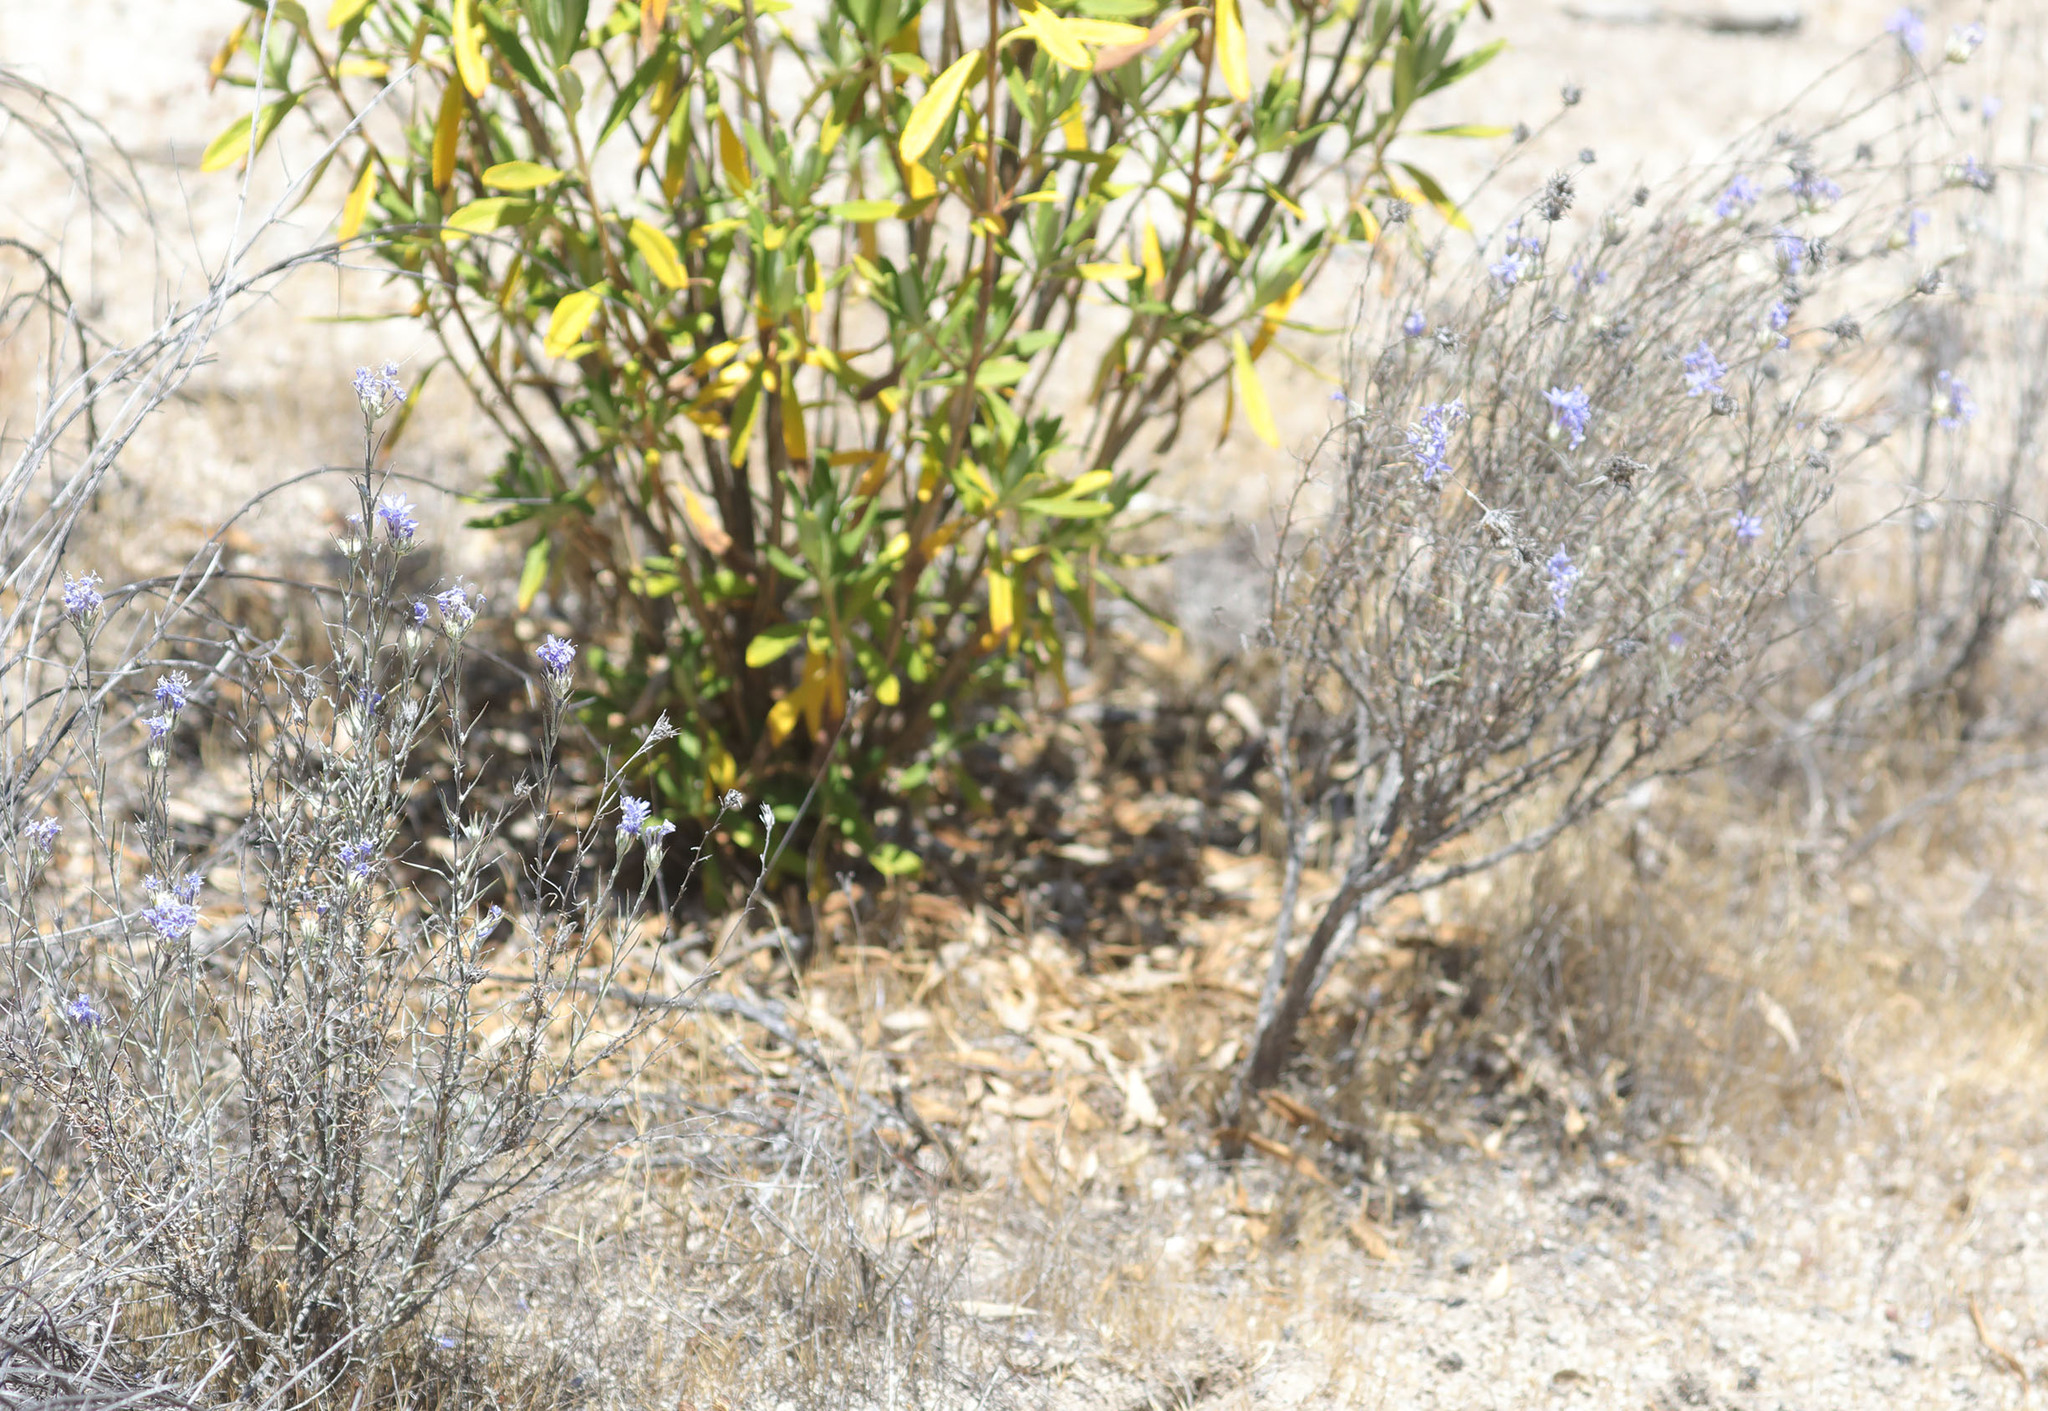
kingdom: Plantae
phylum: Tracheophyta
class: Magnoliopsida
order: Ericales
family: Polemoniaceae
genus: Eriastrum
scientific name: Eriastrum densifolium
